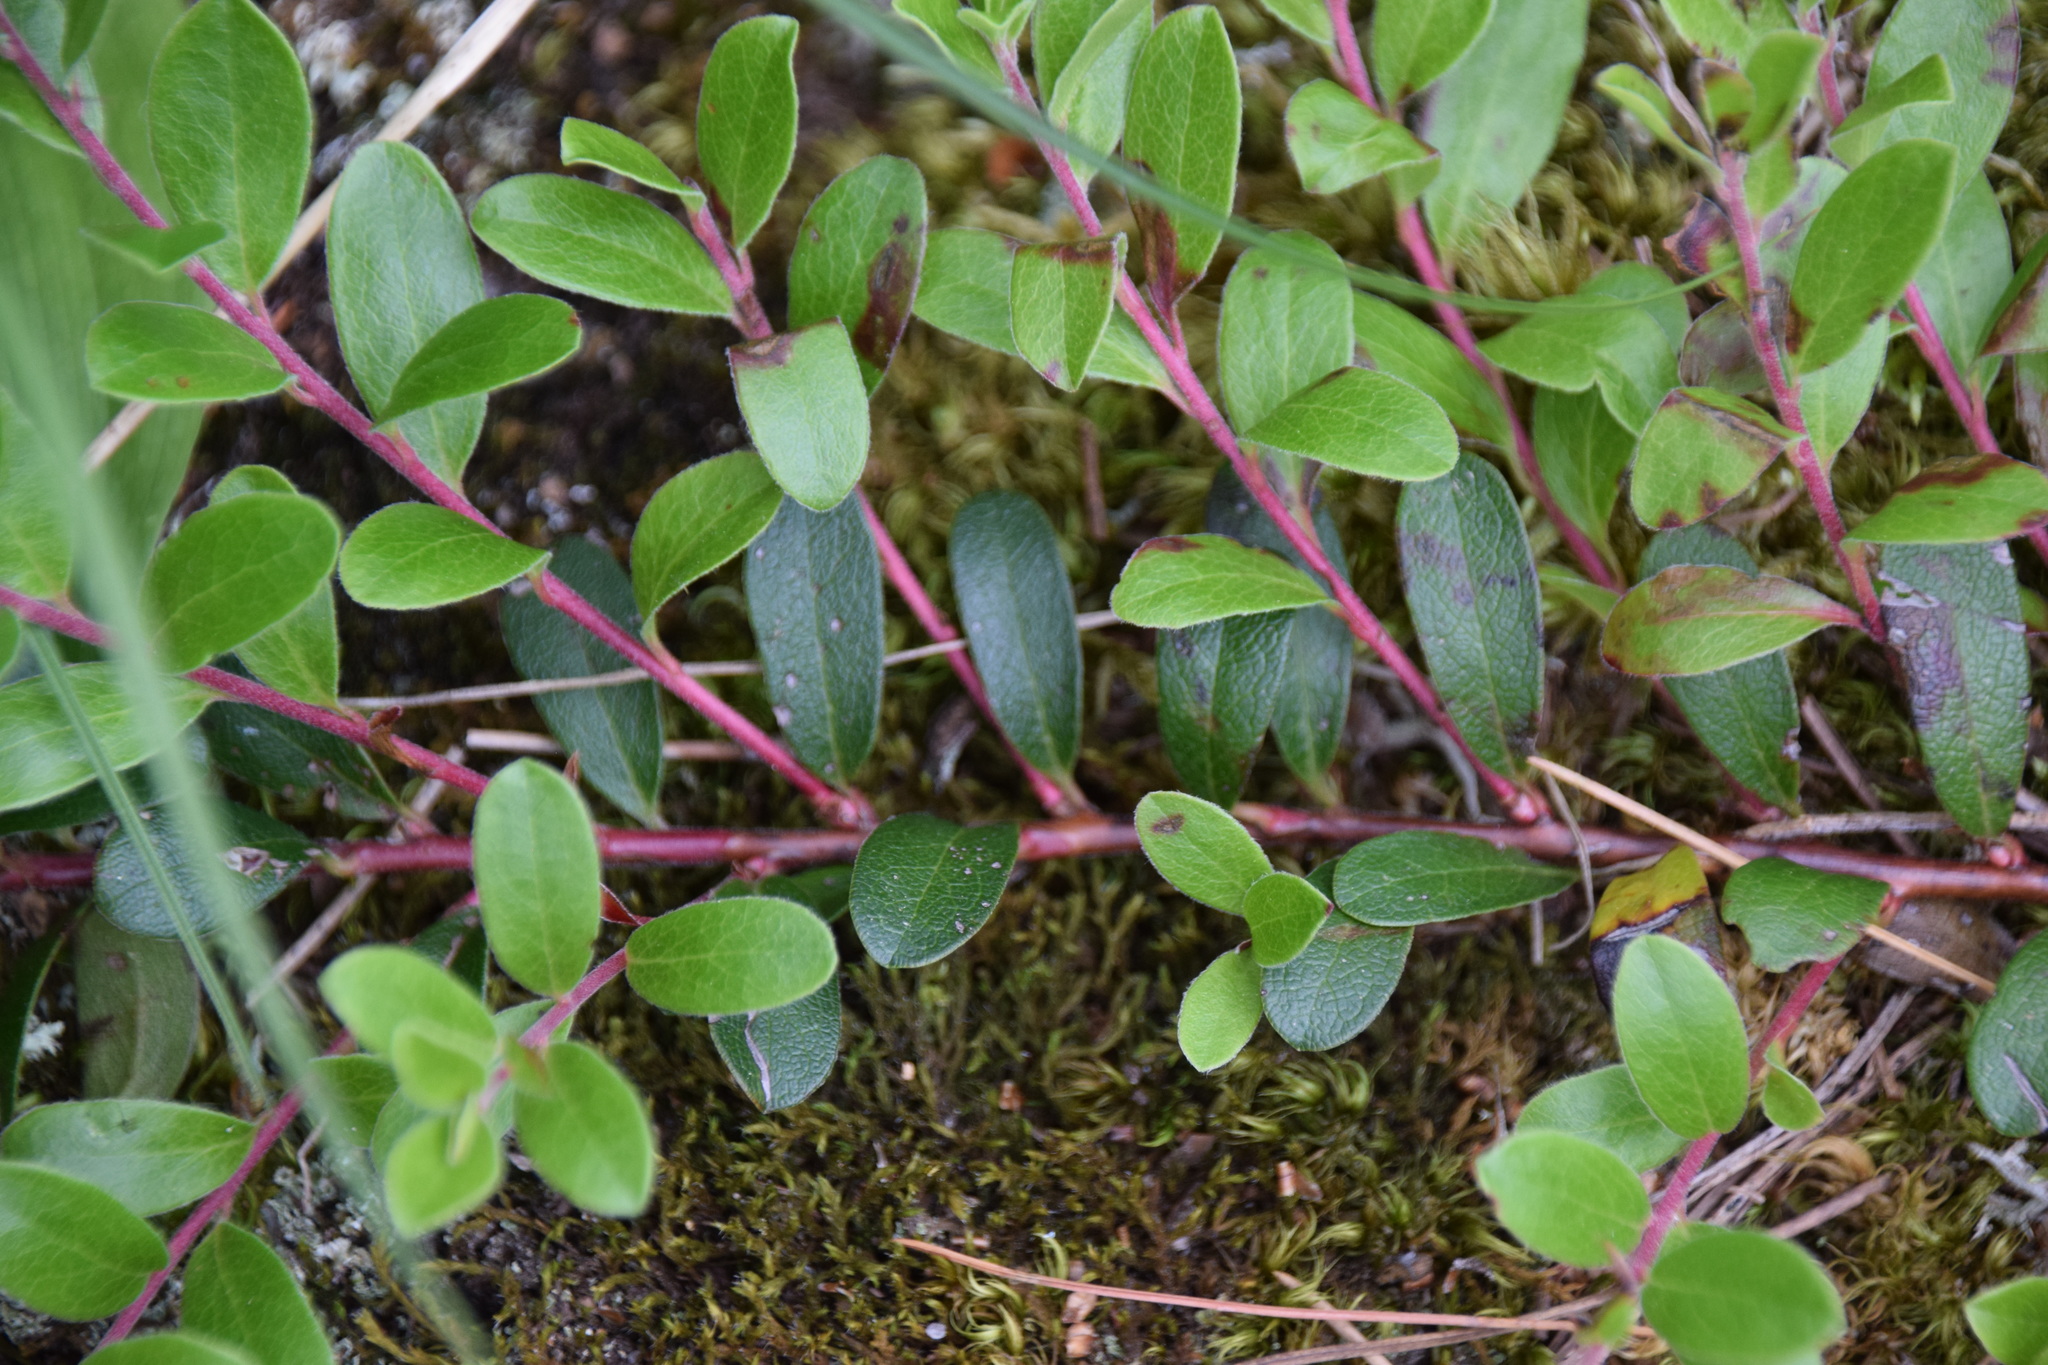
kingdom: Plantae
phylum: Tracheophyta
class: Magnoliopsida
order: Ericales
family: Ericaceae
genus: Arctostaphylos
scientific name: Arctostaphylos uva-ursi
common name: Bearberry
